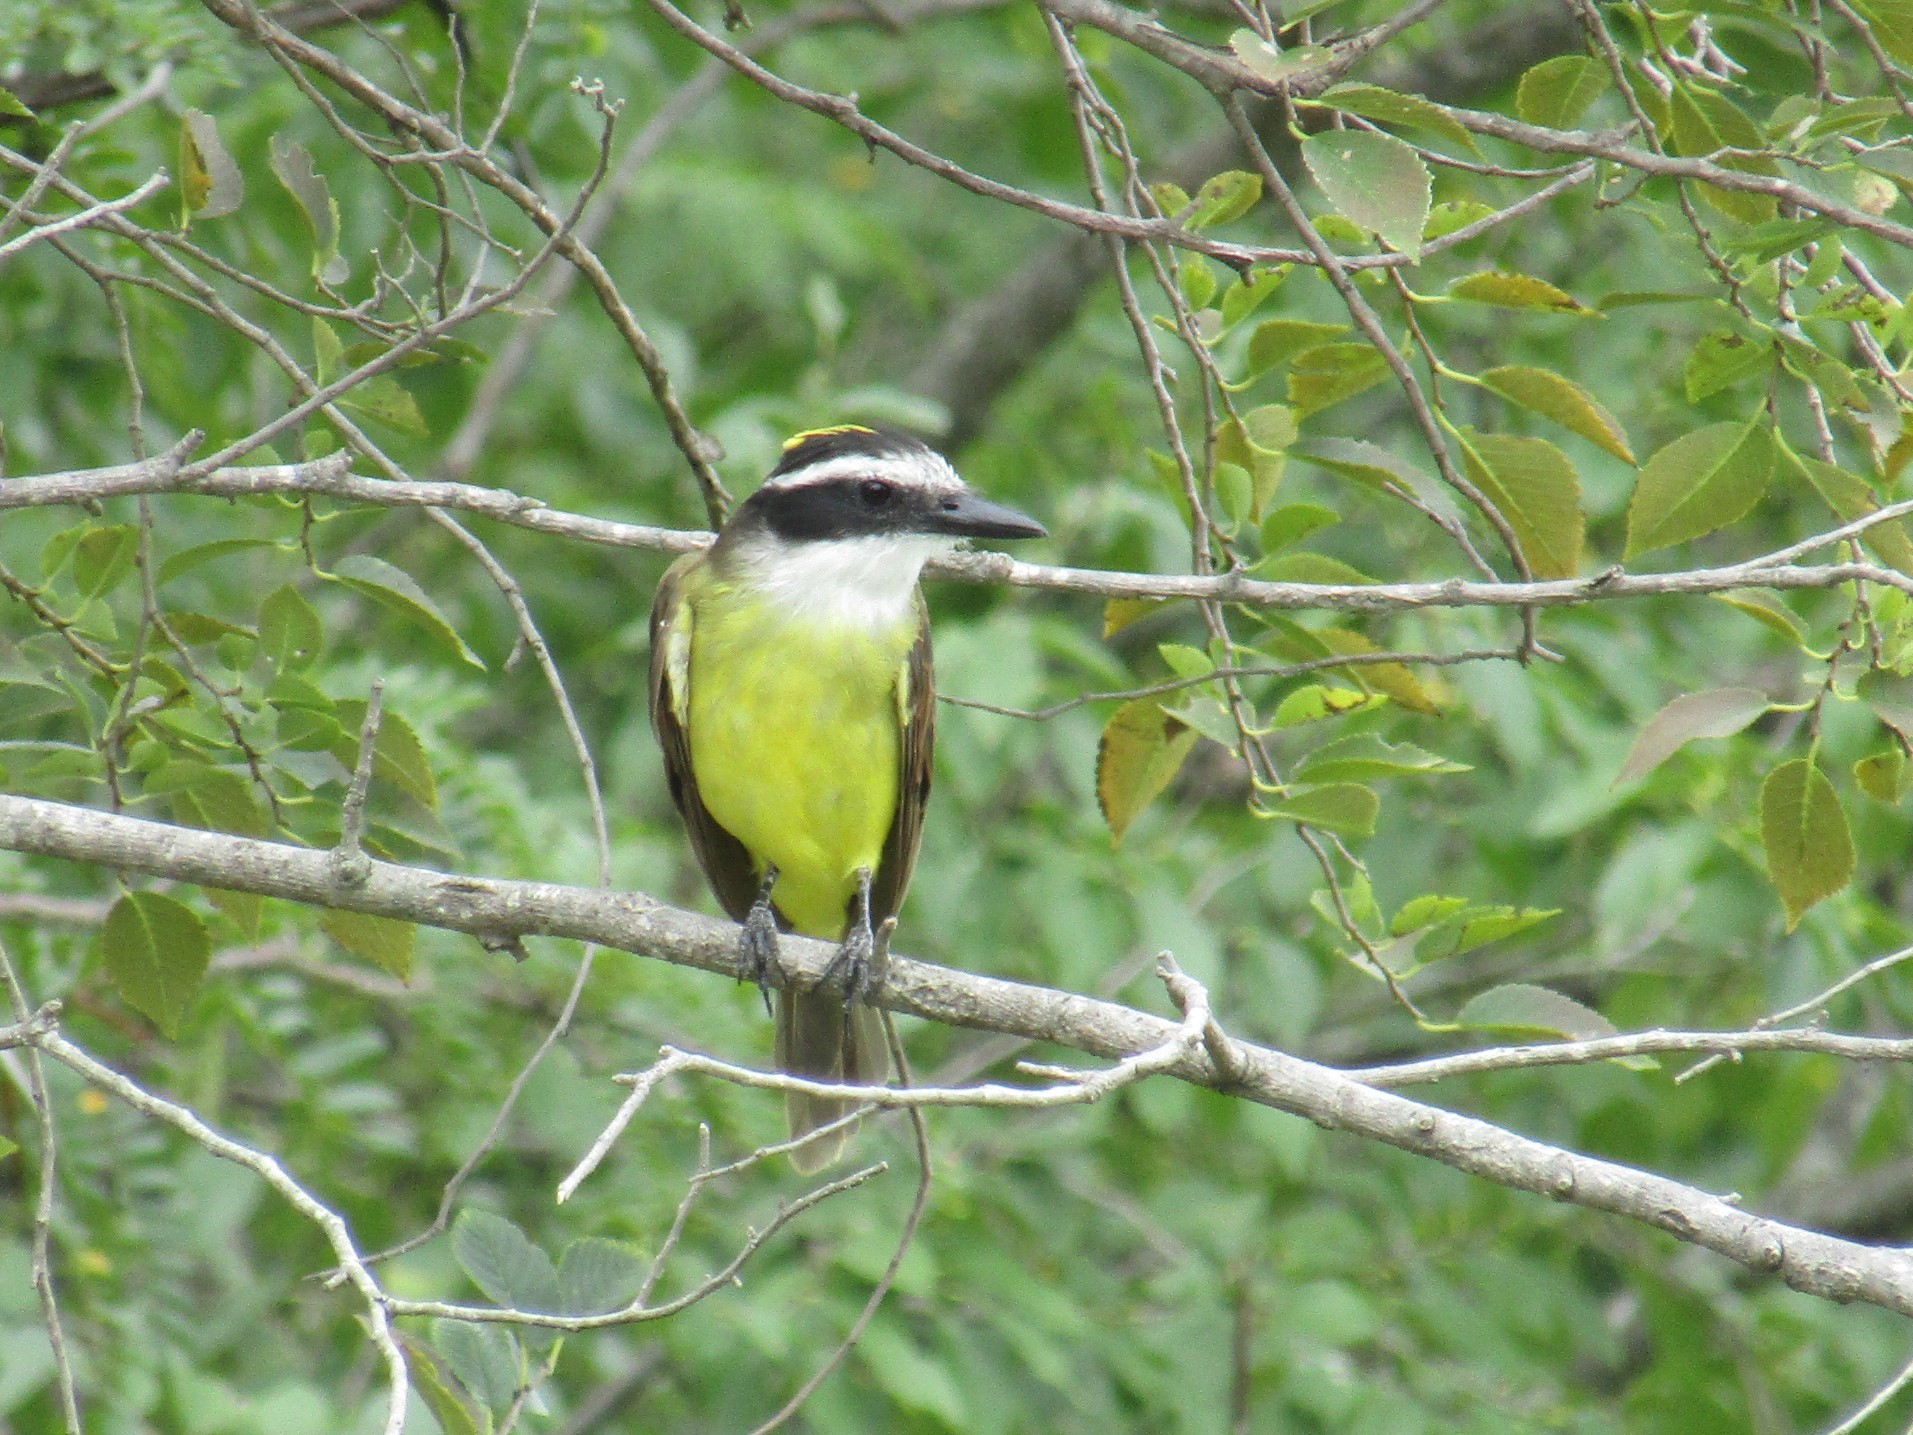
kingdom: Animalia
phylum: Chordata
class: Aves
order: Passeriformes
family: Tyrannidae
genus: Pitangus
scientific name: Pitangus sulphuratus
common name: Great kiskadee
